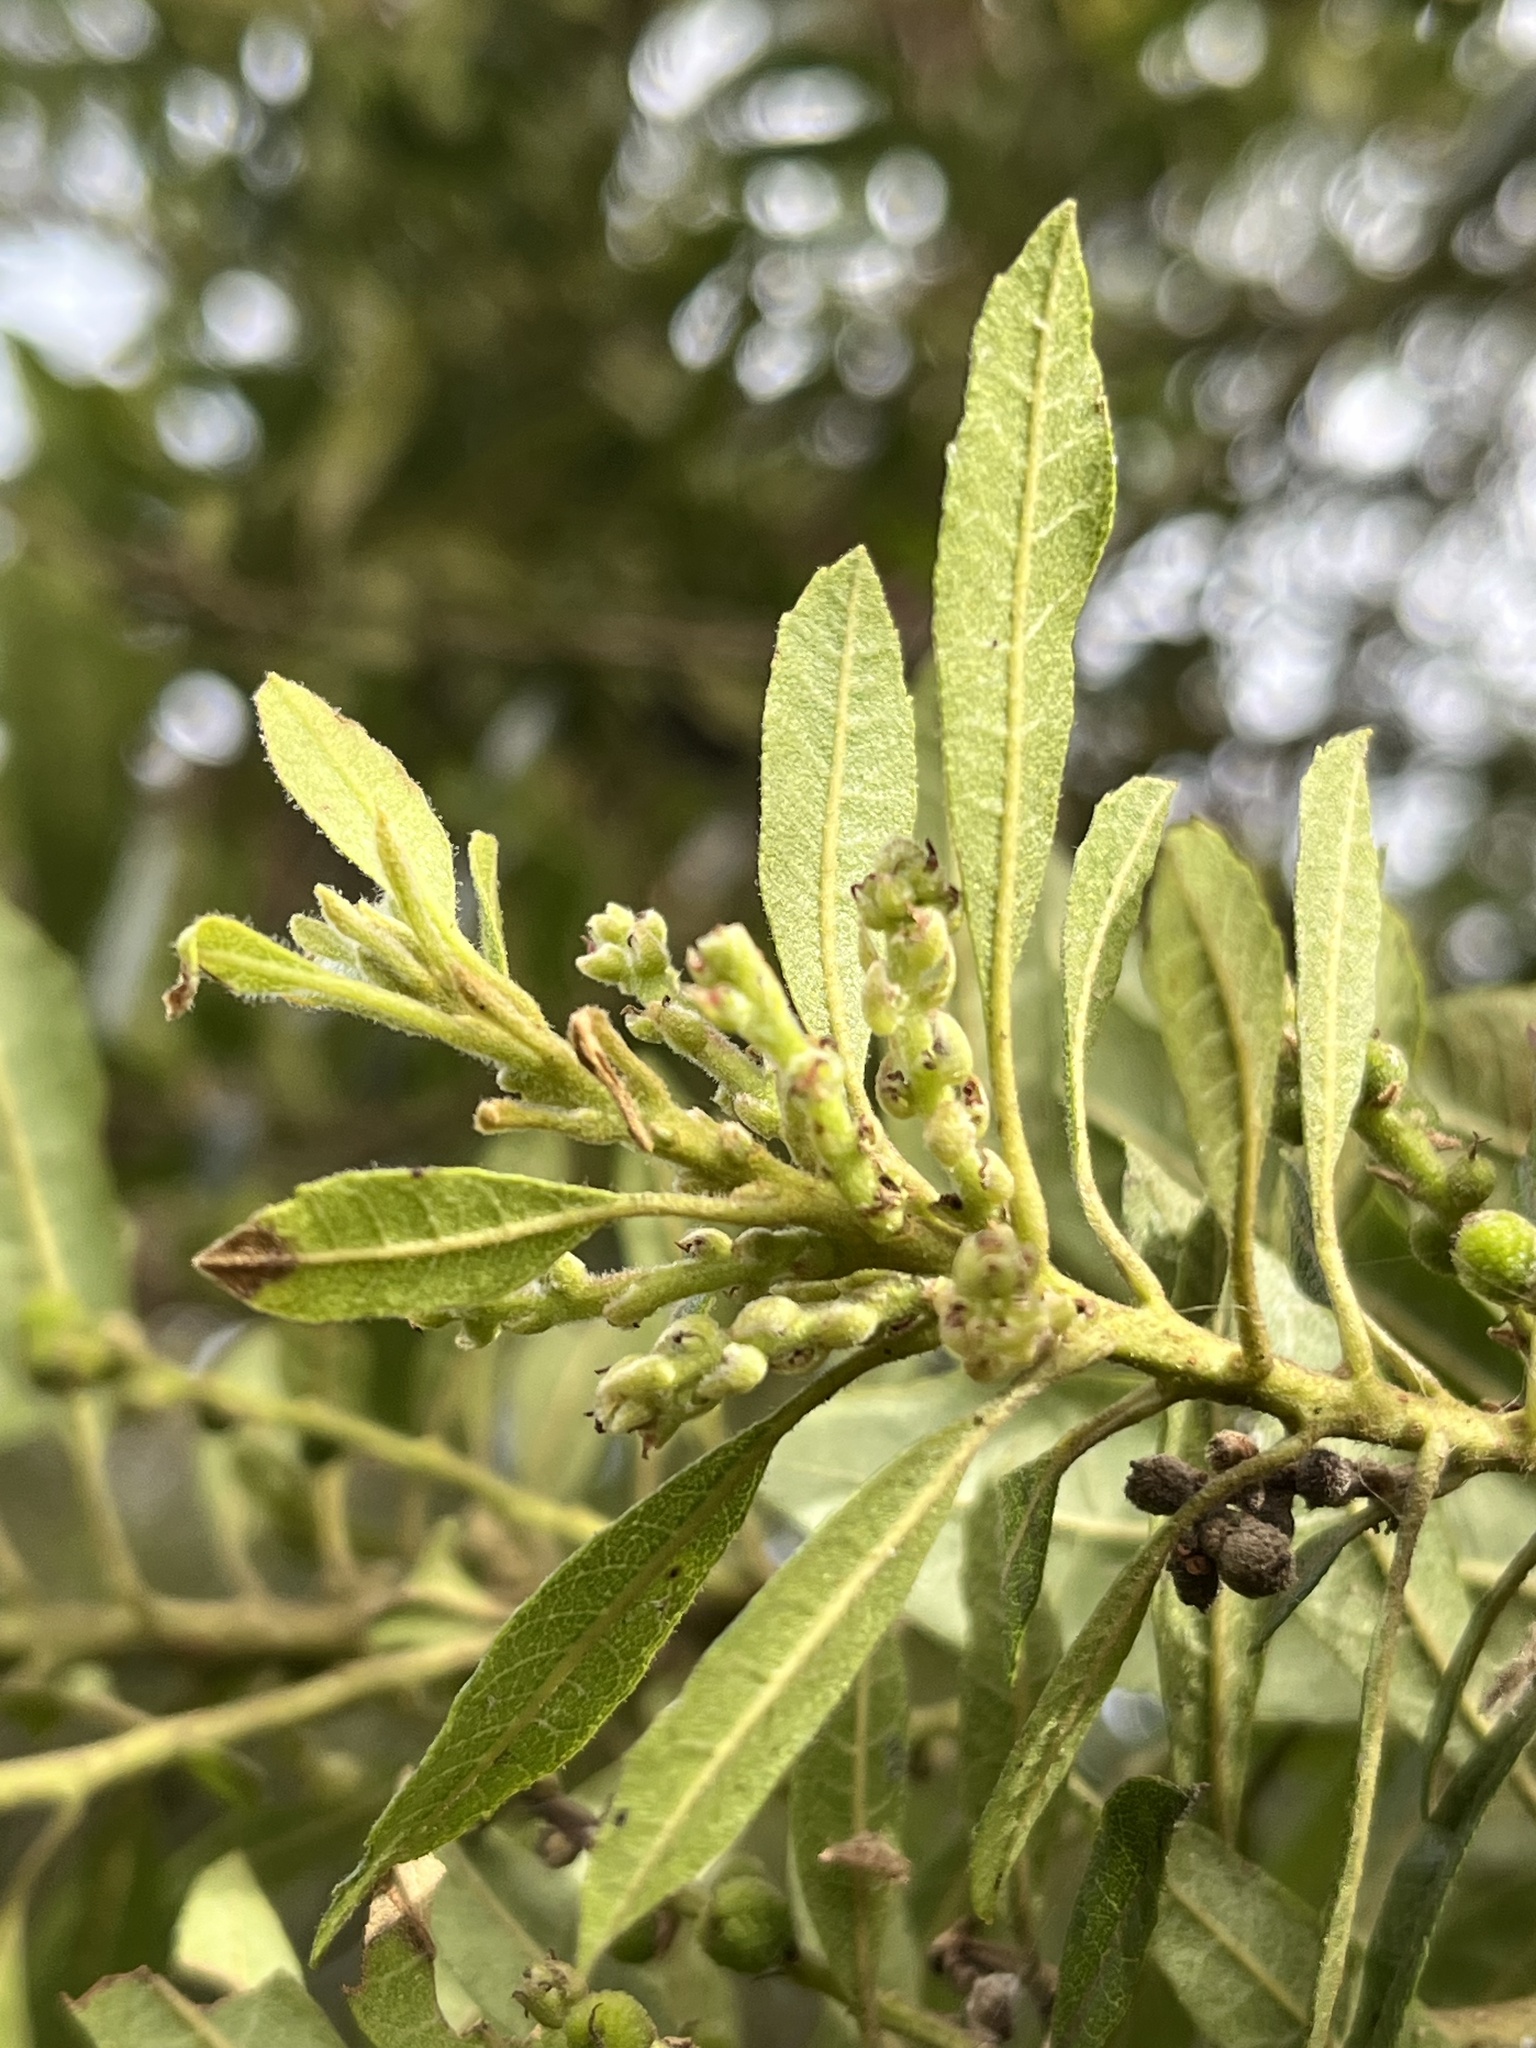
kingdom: Plantae
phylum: Tracheophyta
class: Magnoliopsida
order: Fagales
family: Myricaceae
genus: Morella
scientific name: Morella parvifolia
